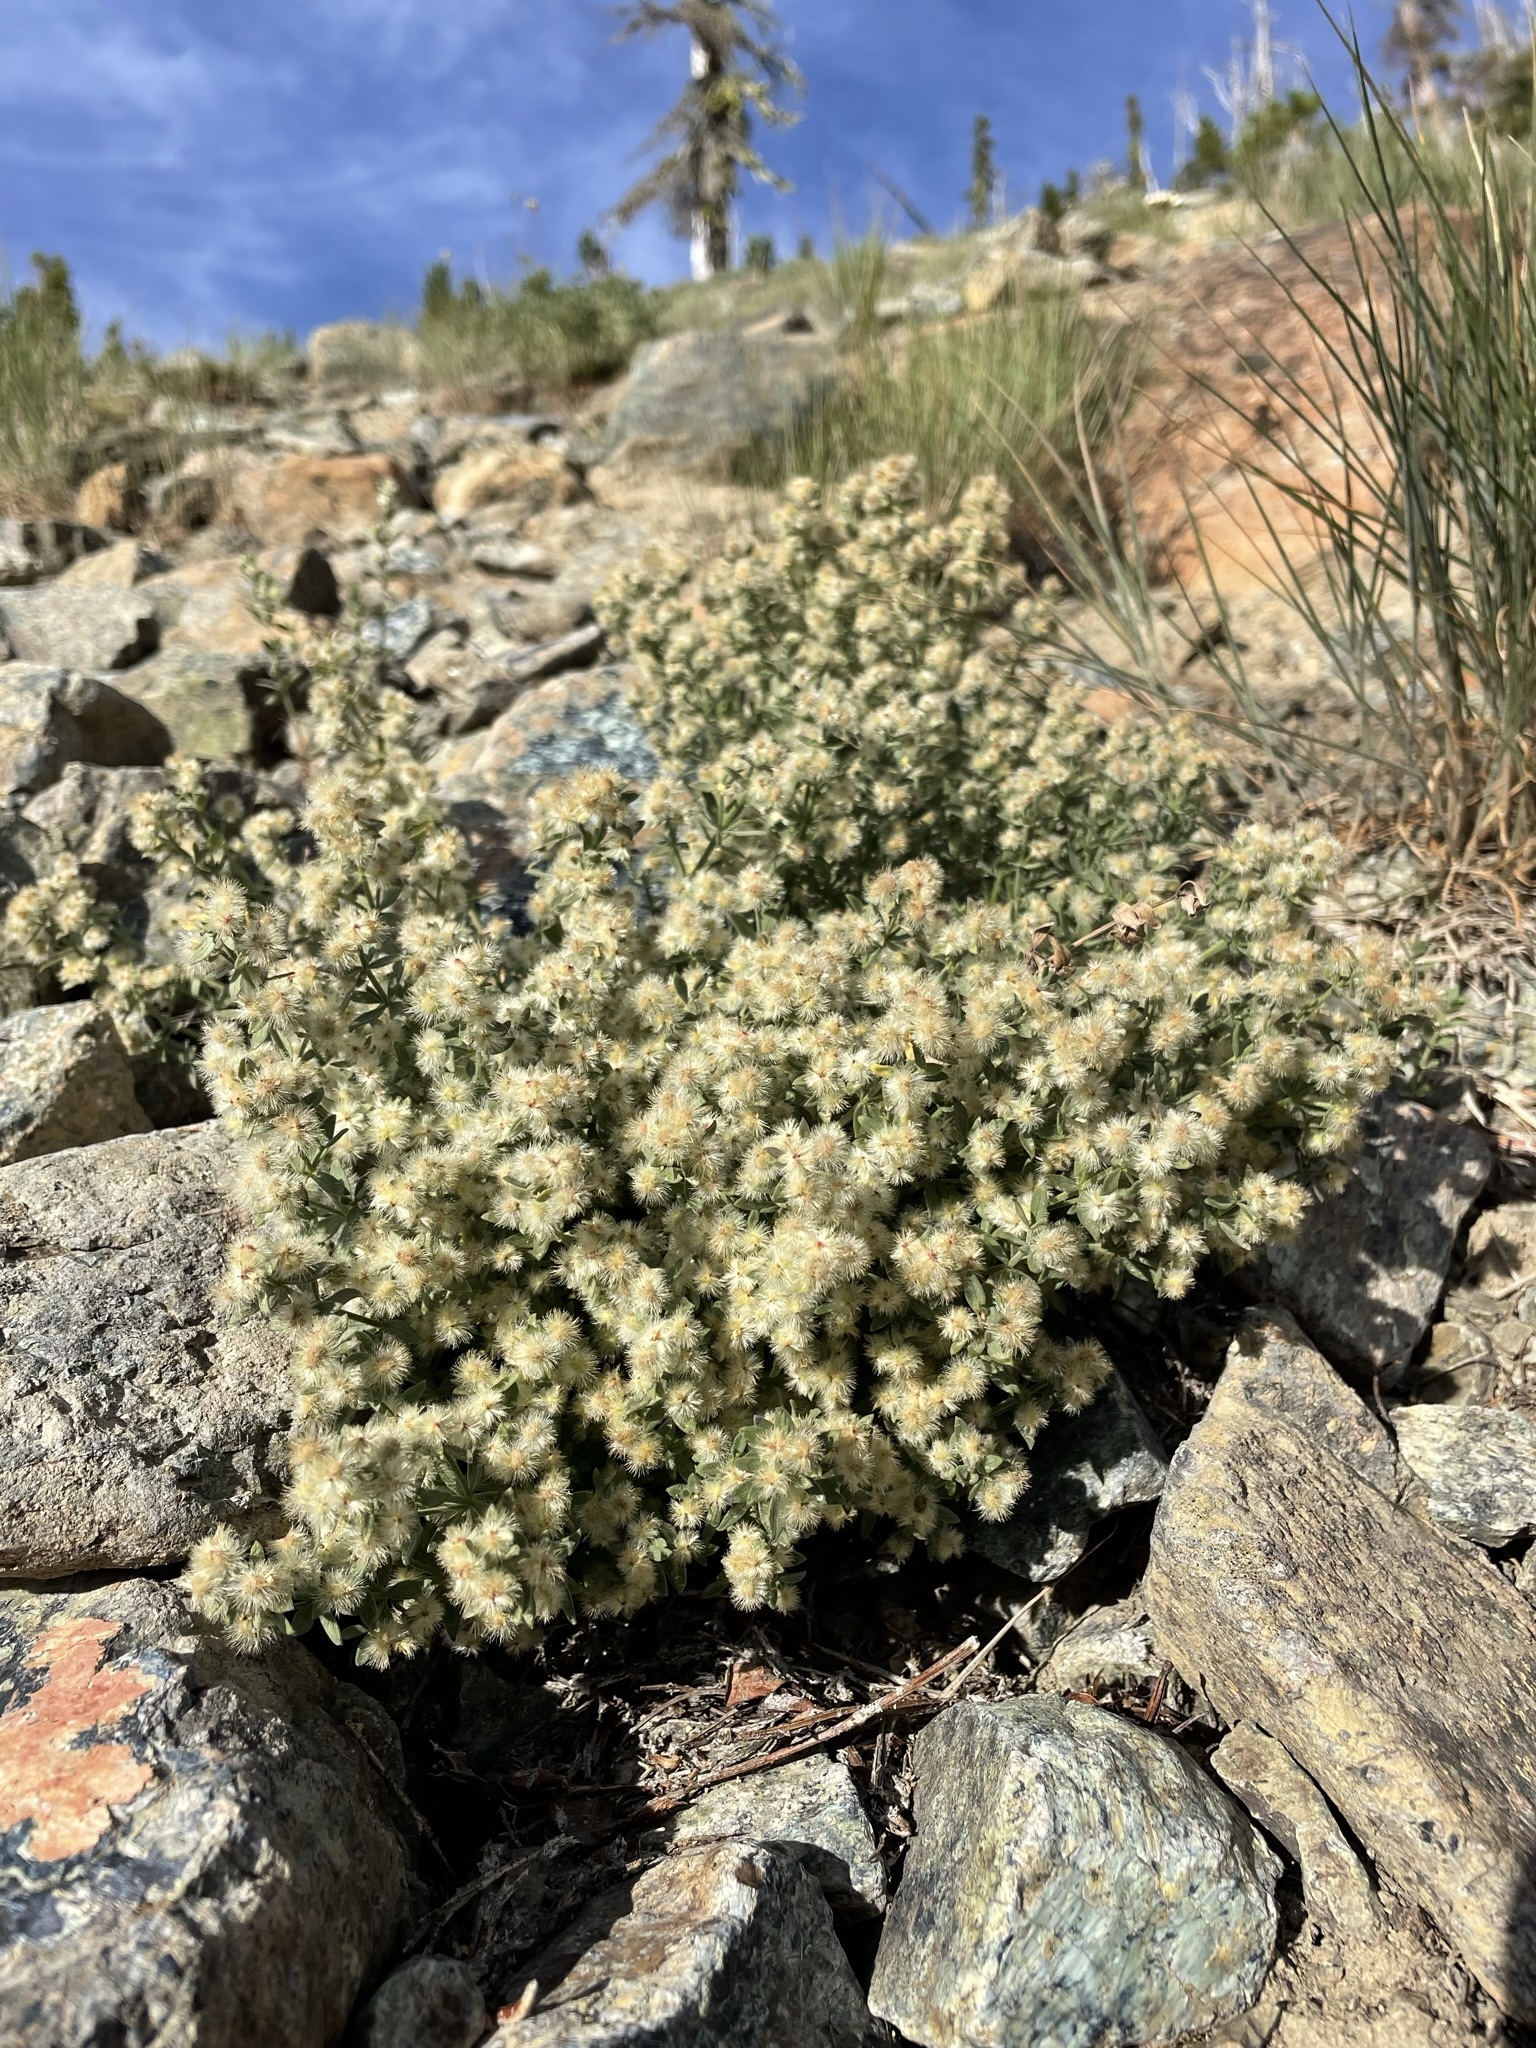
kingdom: Plantae
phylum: Tracheophyta
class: Magnoliopsida
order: Gentianales
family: Rubiaceae
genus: Galium
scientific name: Galium serpenticum
